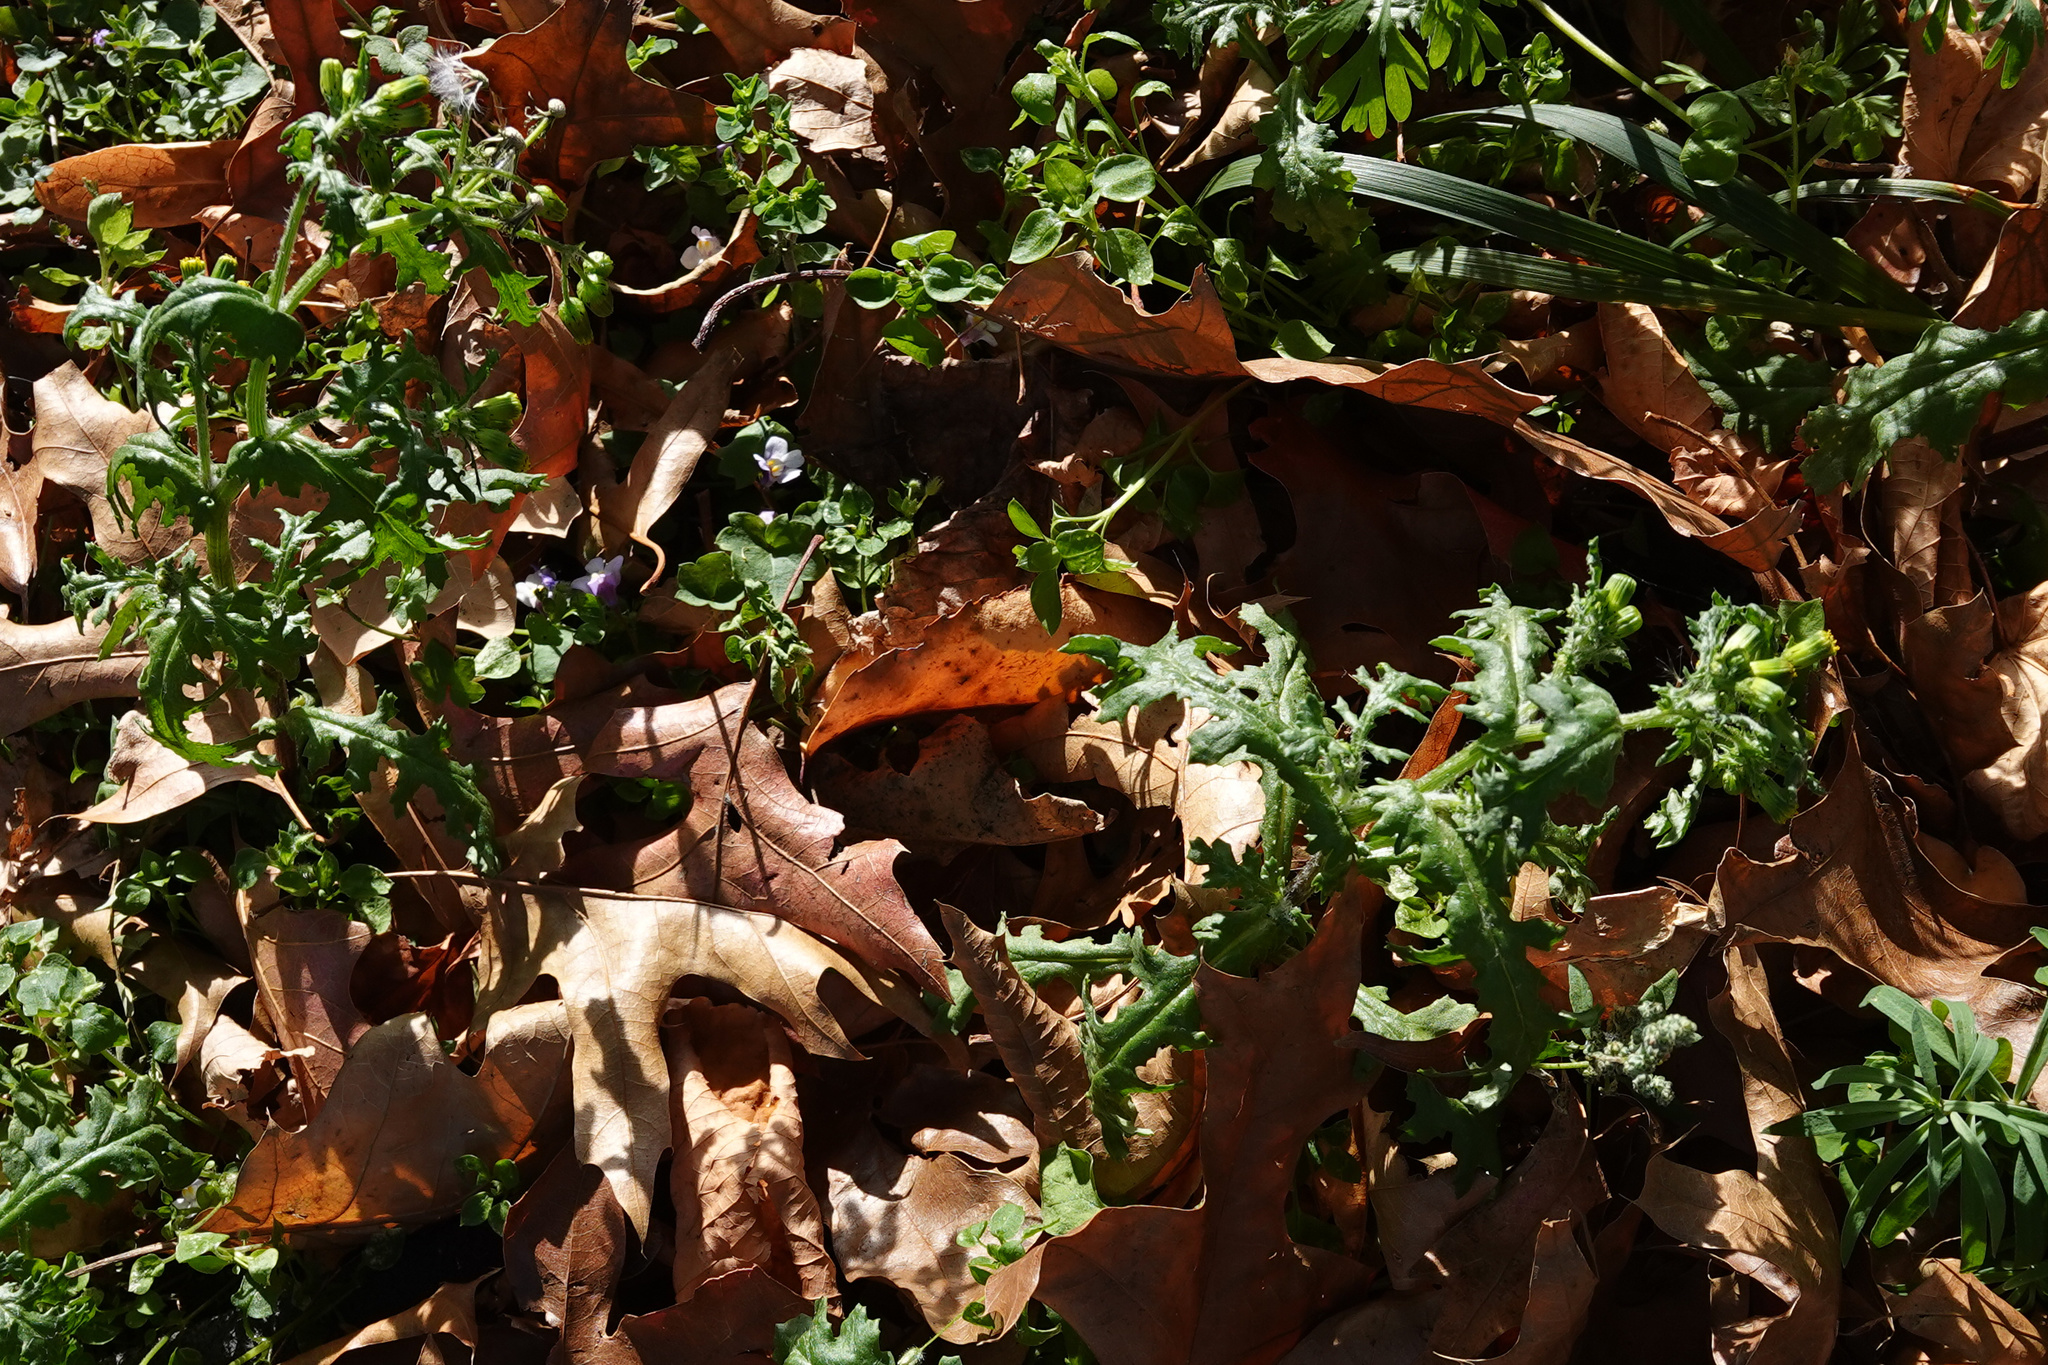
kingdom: Plantae
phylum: Tracheophyta
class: Magnoliopsida
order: Asterales
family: Asteraceae
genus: Senecio
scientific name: Senecio vulgaris
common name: Old-man-in-the-spring
